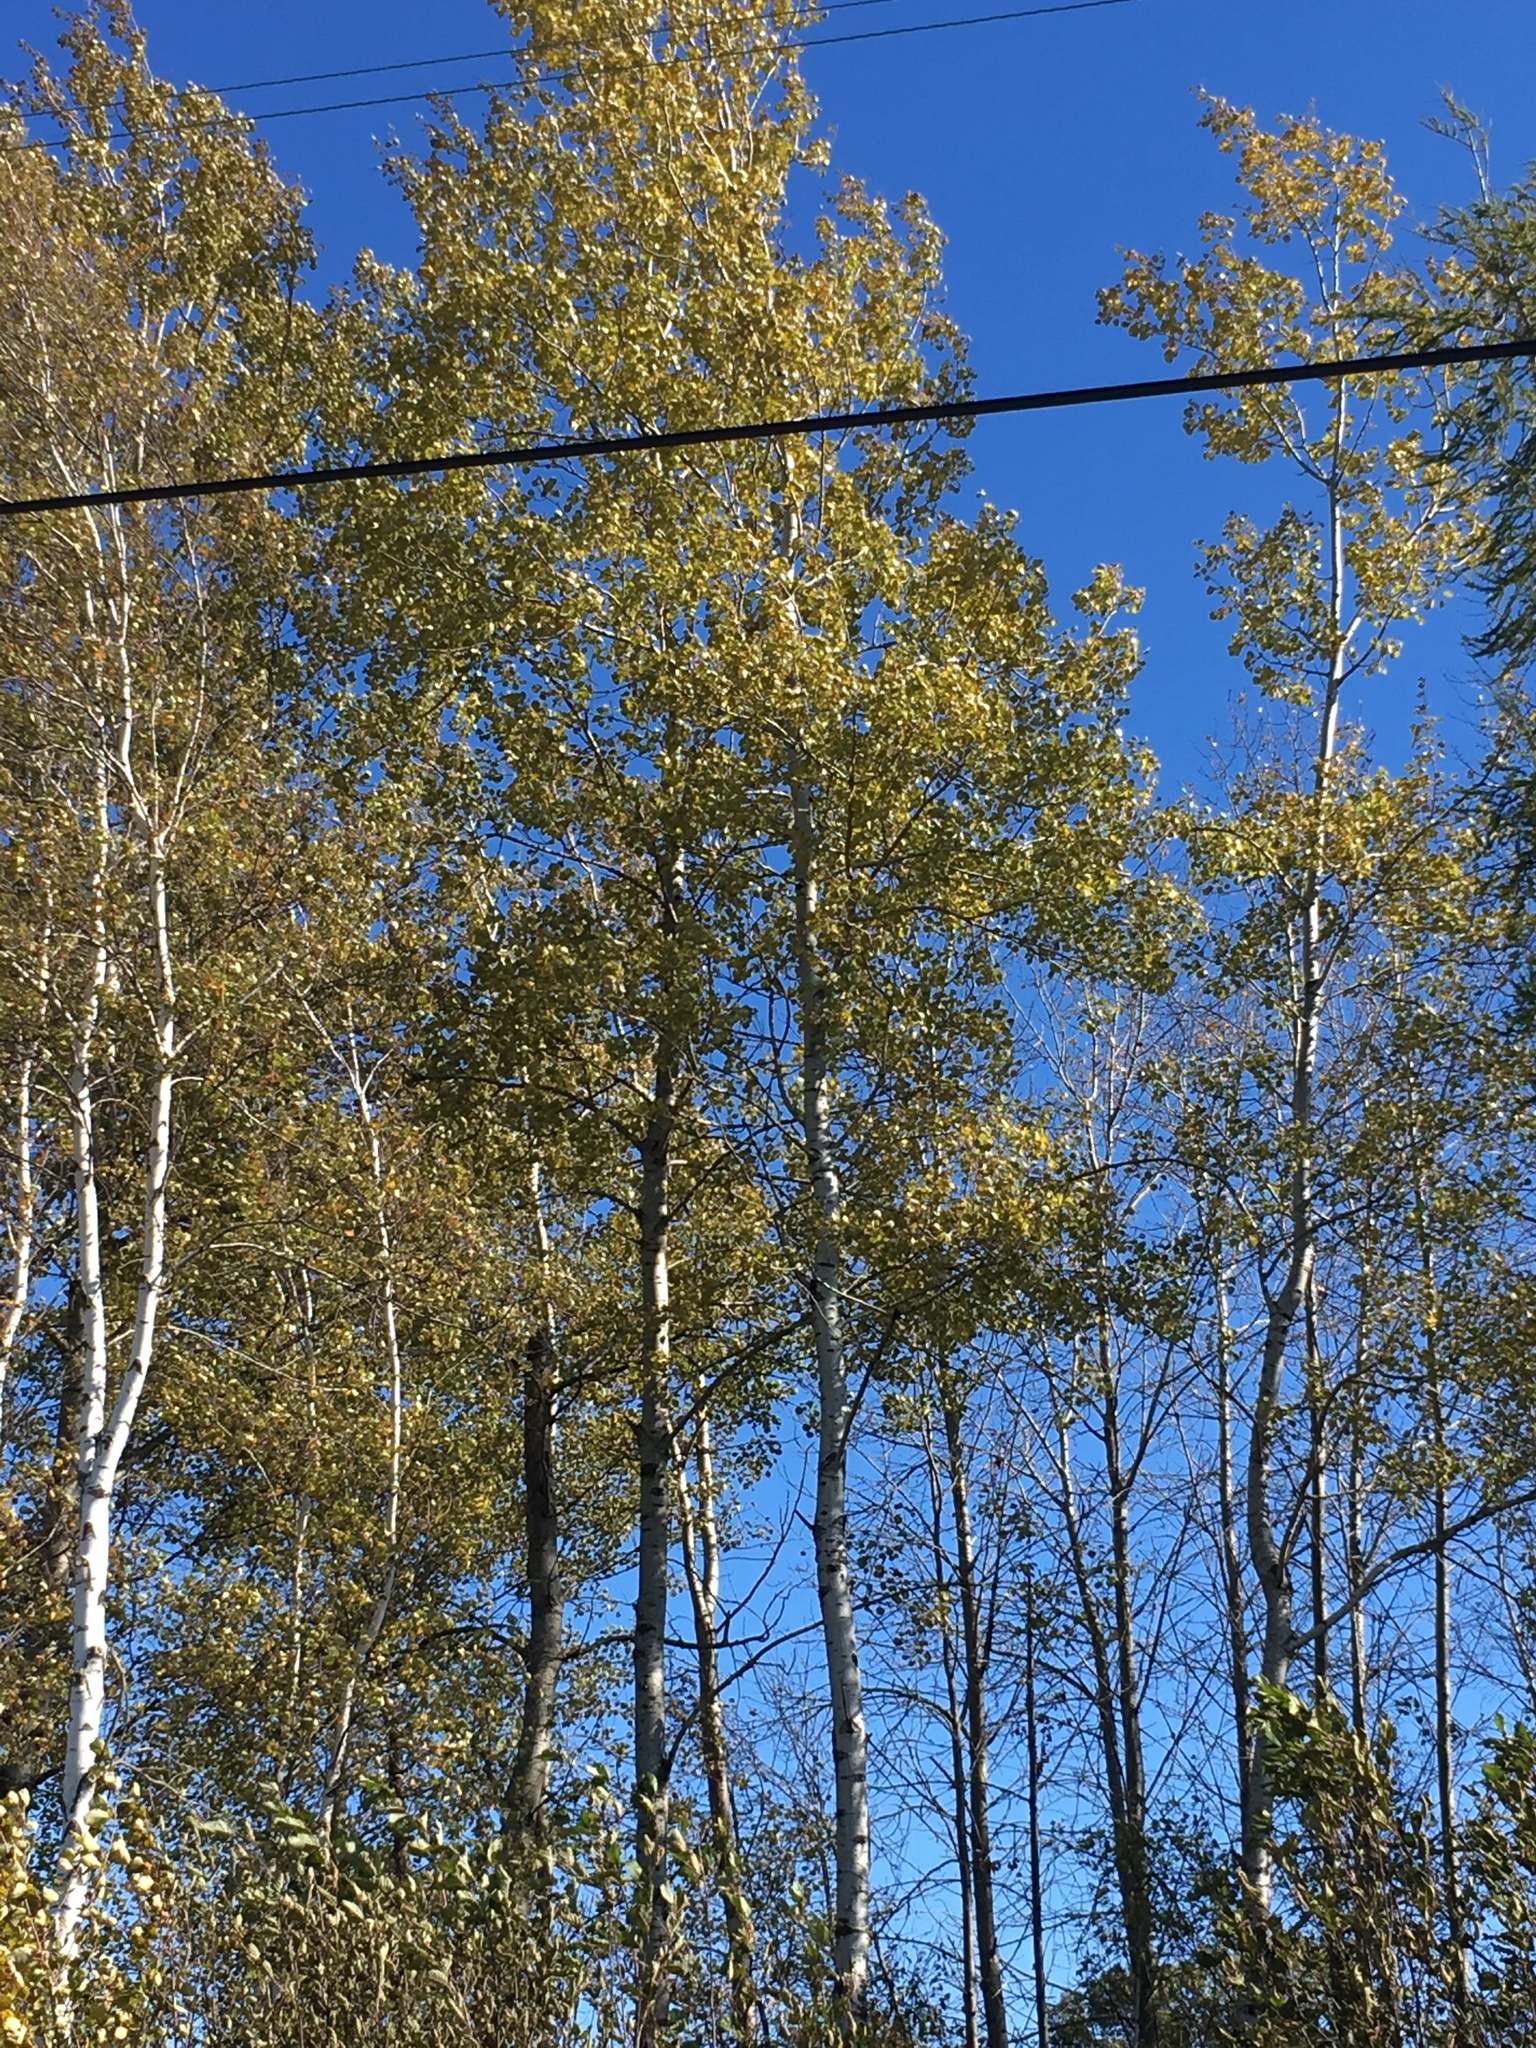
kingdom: Plantae
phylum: Tracheophyta
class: Magnoliopsida
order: Malpighiales
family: Salicaceae
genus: Populus
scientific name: Populus tremuloides
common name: Quaking aspen
